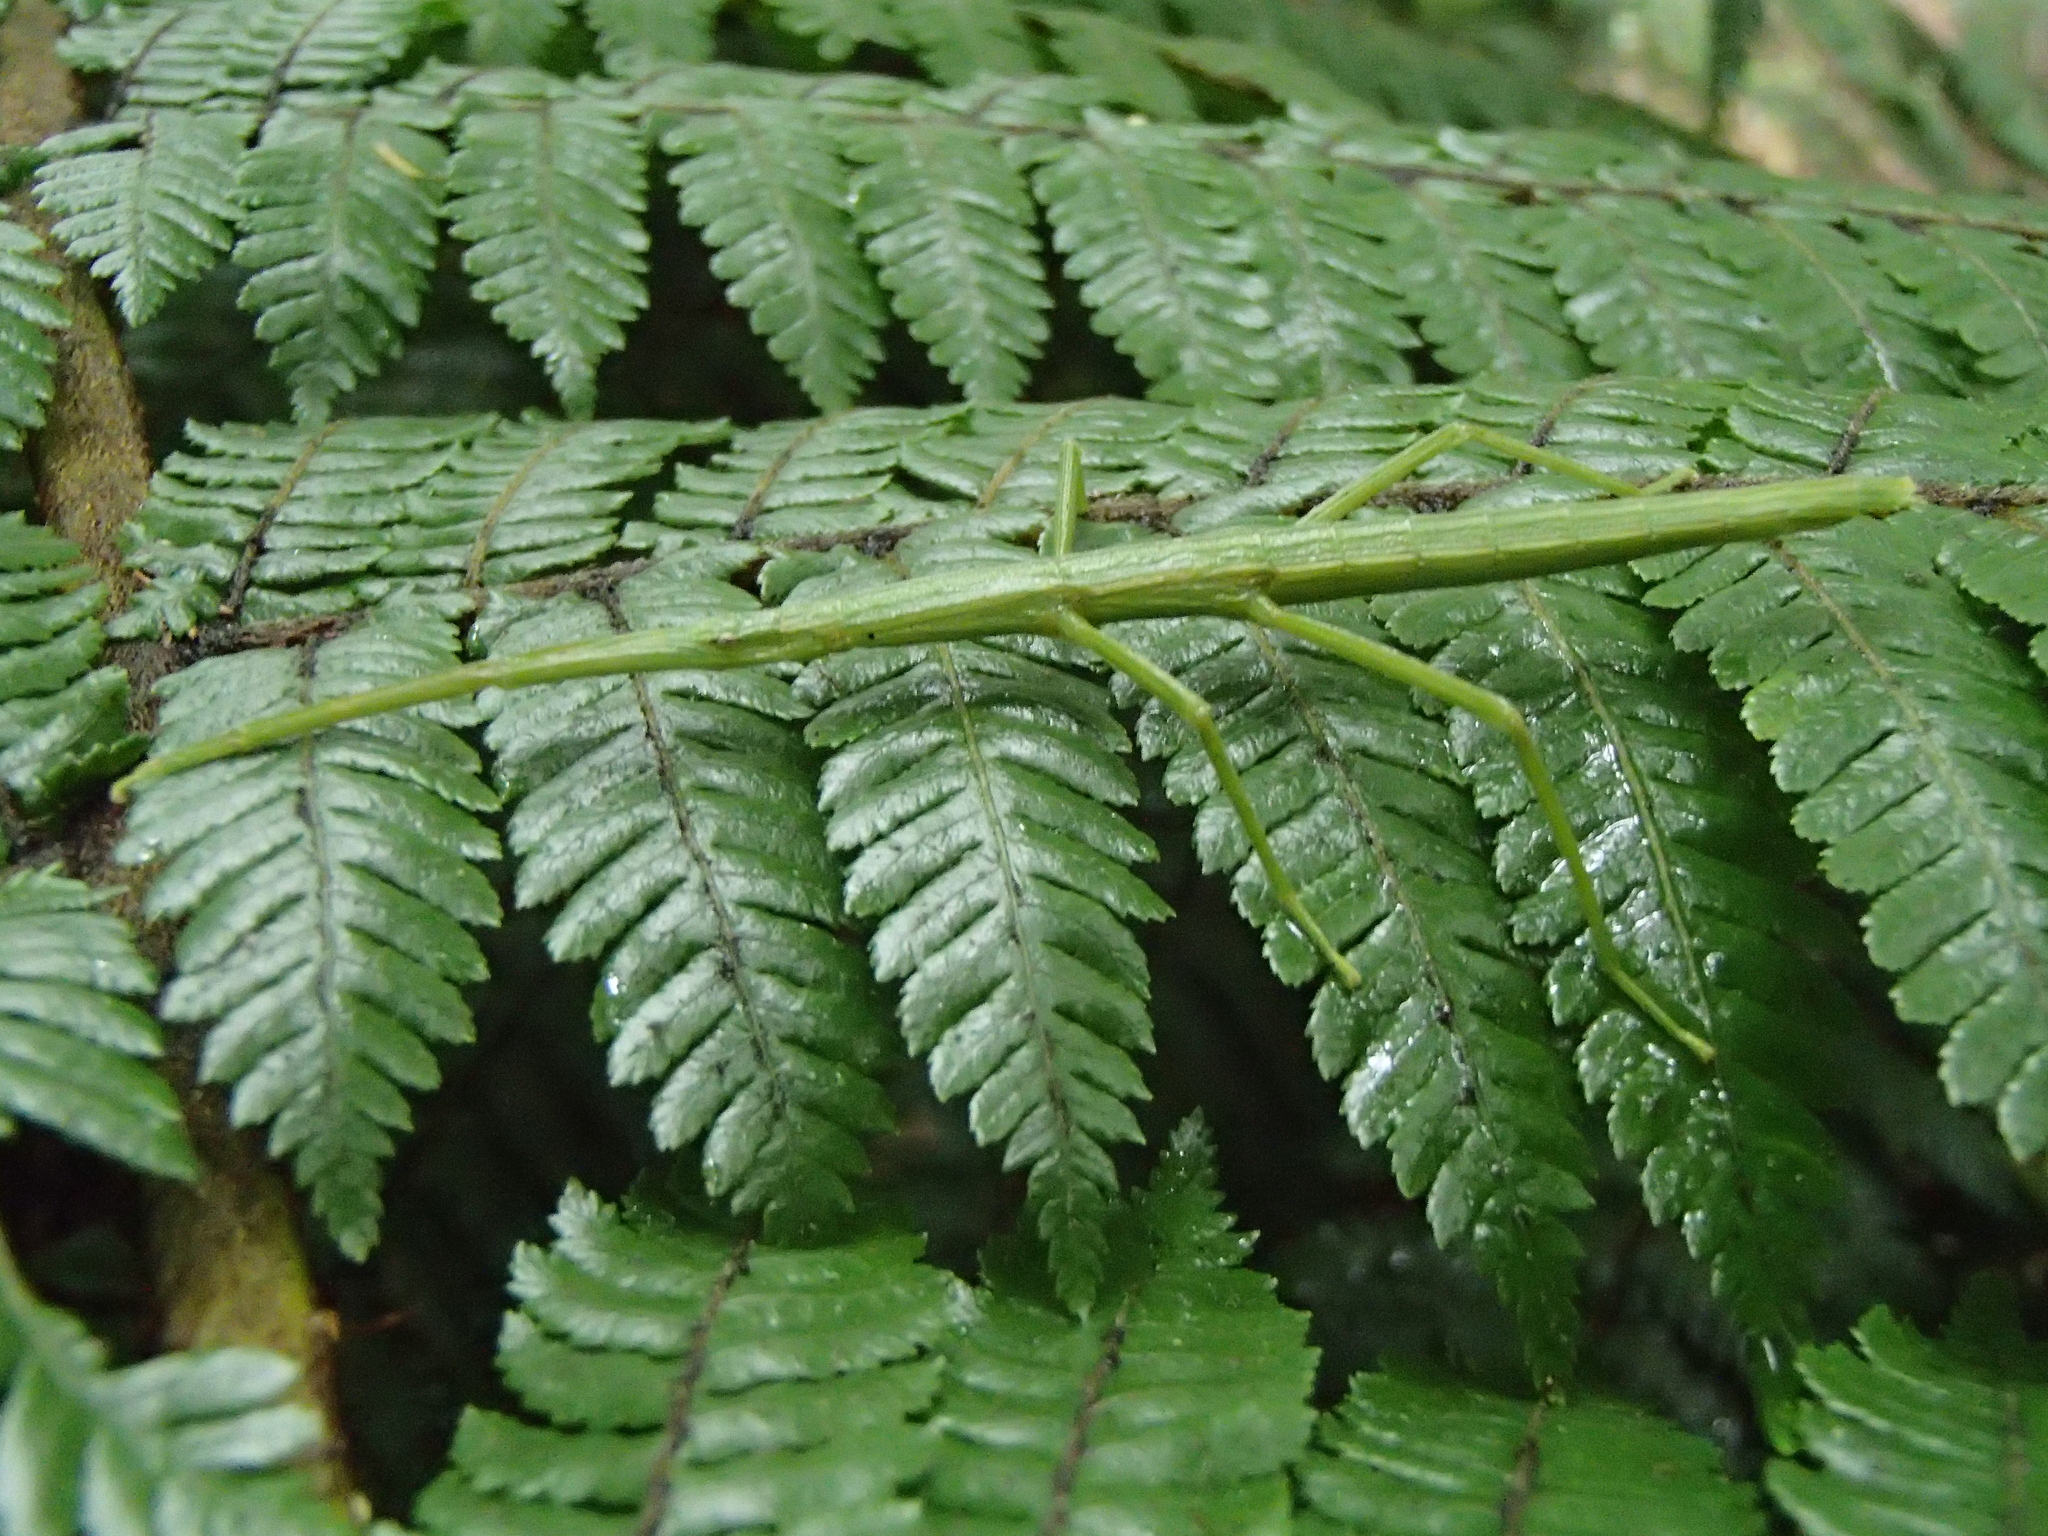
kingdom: Animalia
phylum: Arthropoda
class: Insecta
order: Phasmida
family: Phasmatidae
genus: Tectarchus
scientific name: Tectarchus salebrosus
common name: Lesser rough-skinned stick insect
